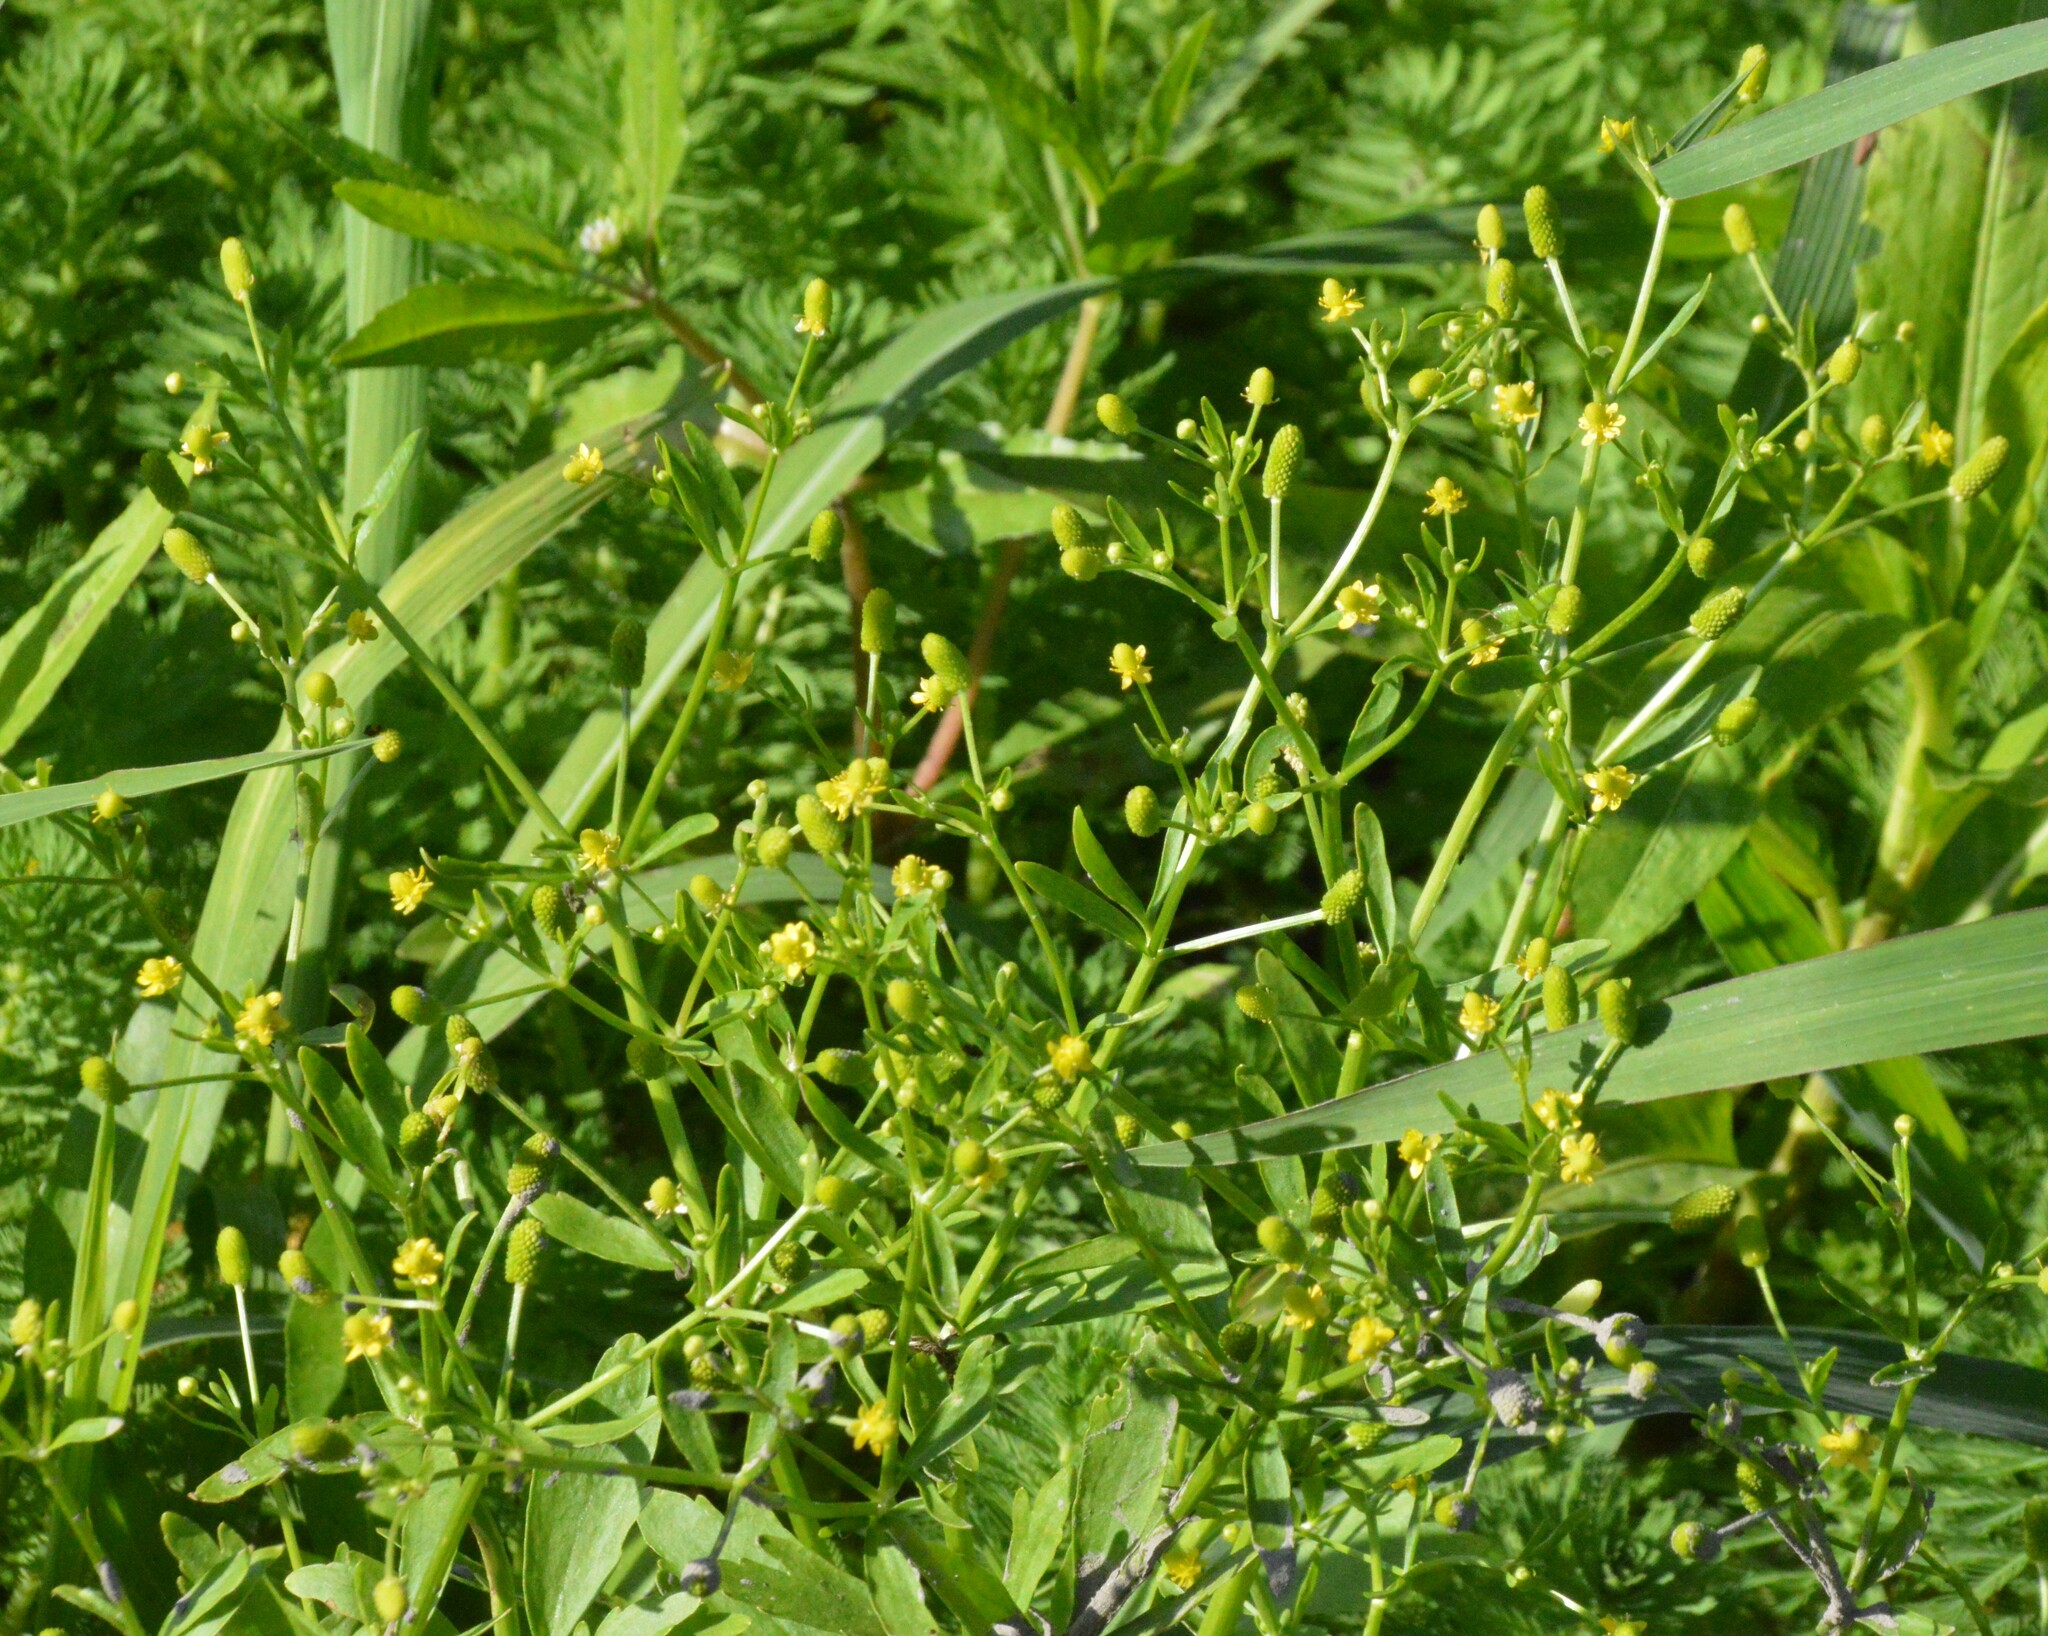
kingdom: Plantae
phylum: Tracheophyta
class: Magnoliopsida
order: Ranunculales
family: Ranunculaceae
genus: Ranunculus
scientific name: Ranunculus sceleratus
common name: Celery-leaved buttercup
